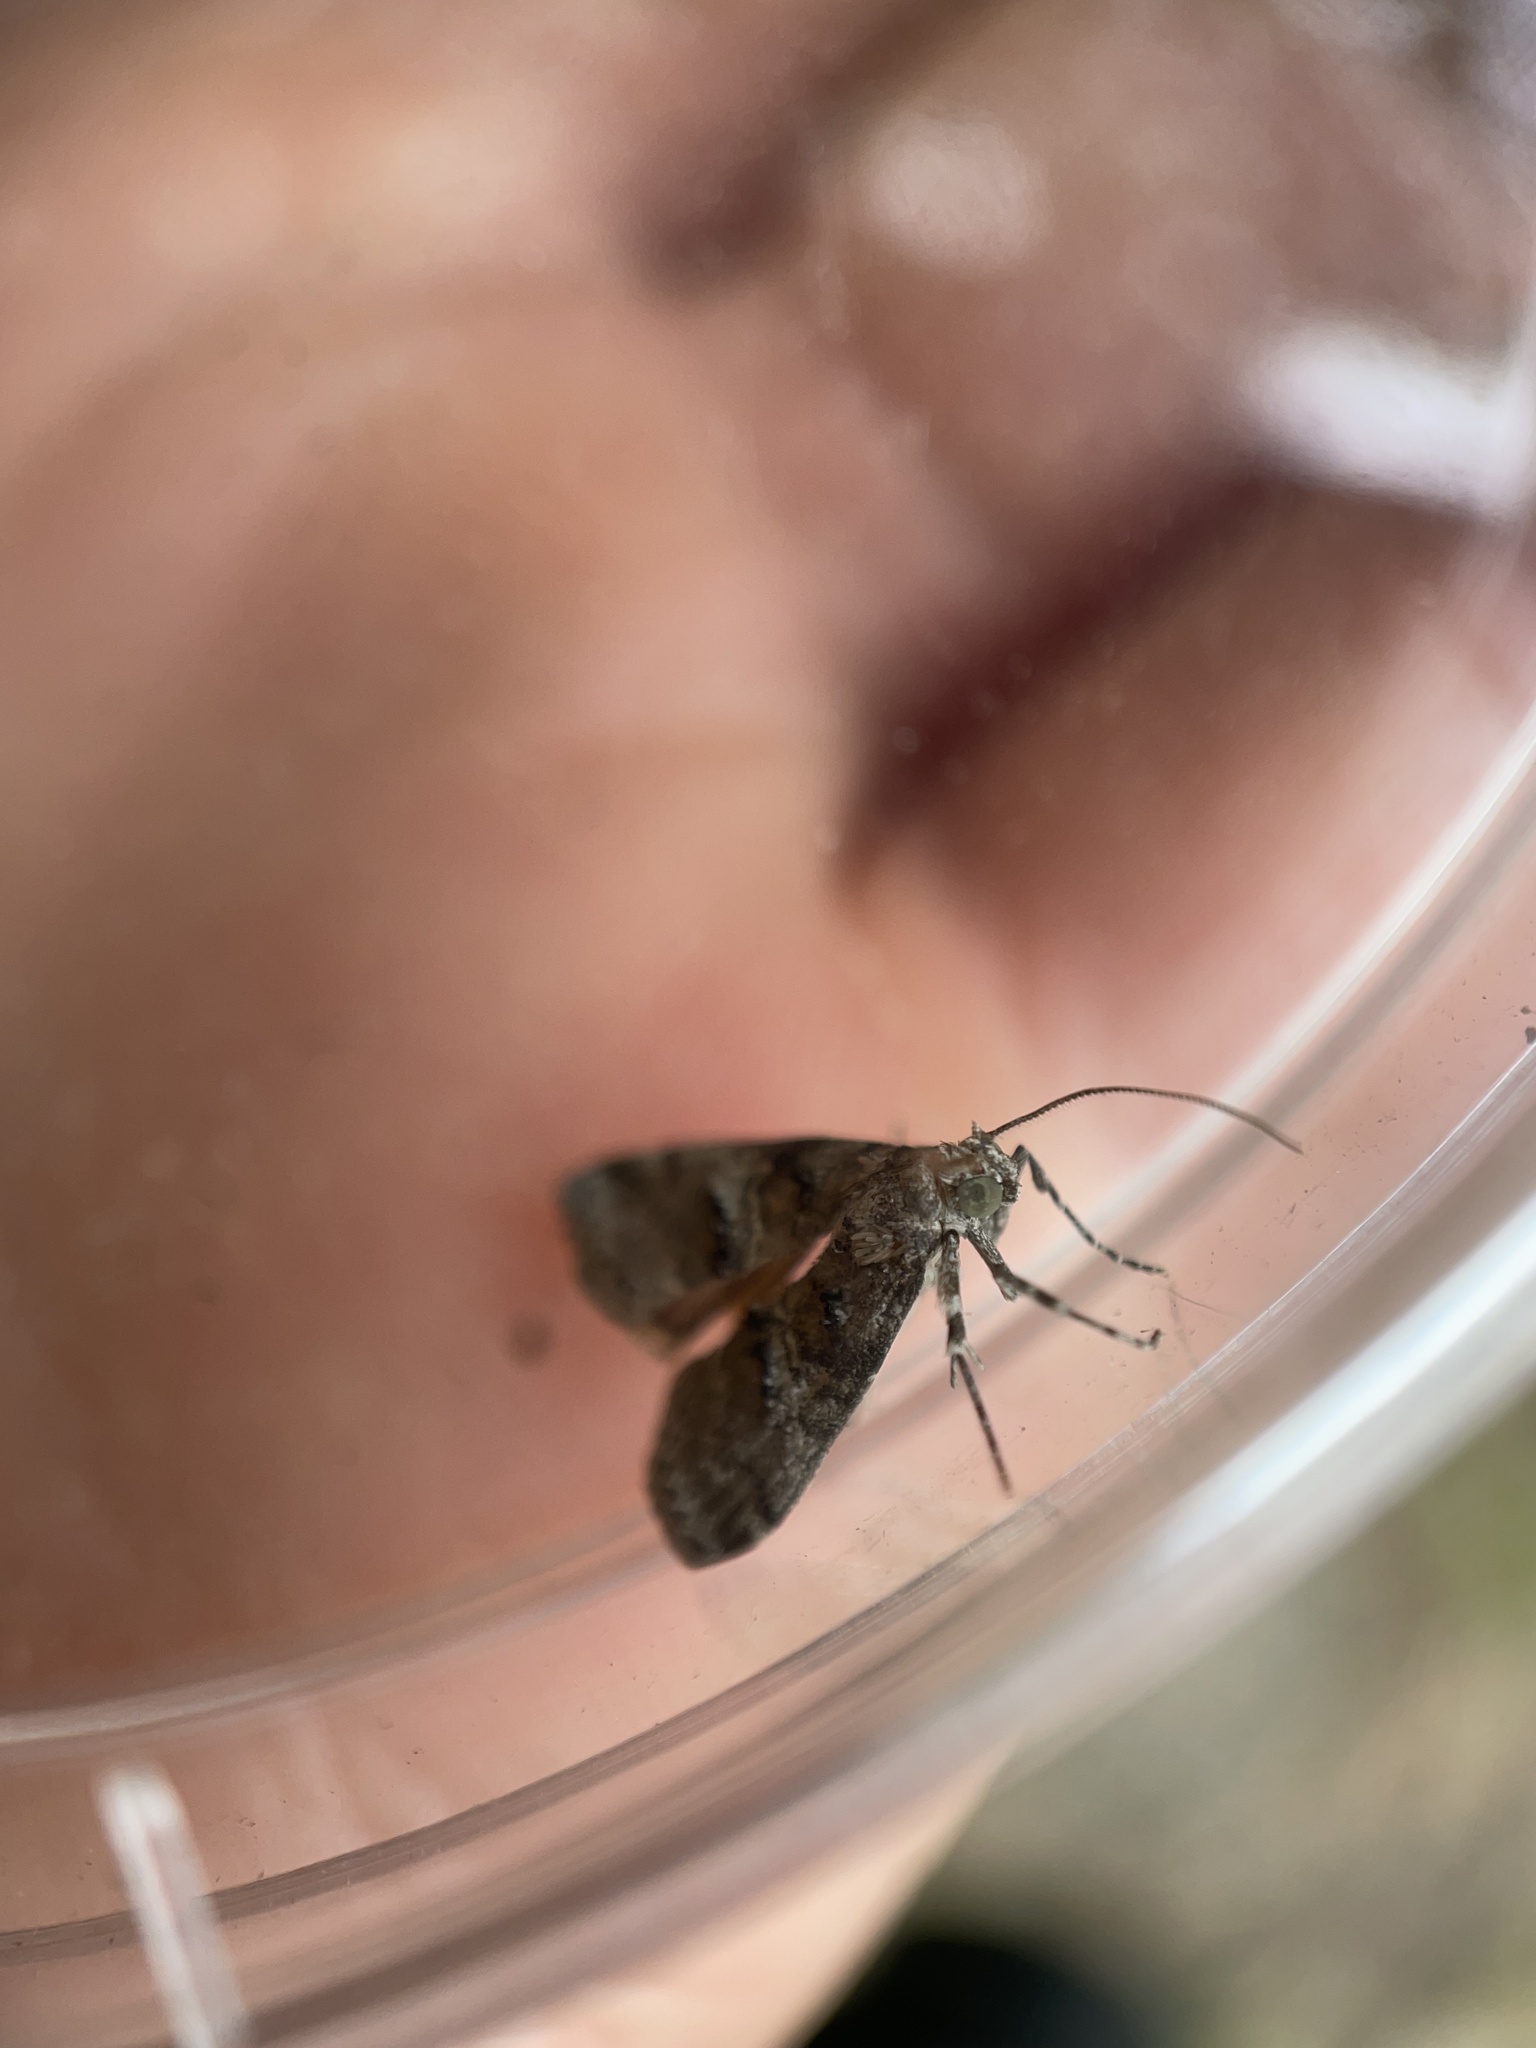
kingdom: Animalia
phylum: Arthropoda
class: Insecta
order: Lepidoptera
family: Pyralidae
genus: Pococera
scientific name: Pococera asperatella
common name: Maple webworm moth
